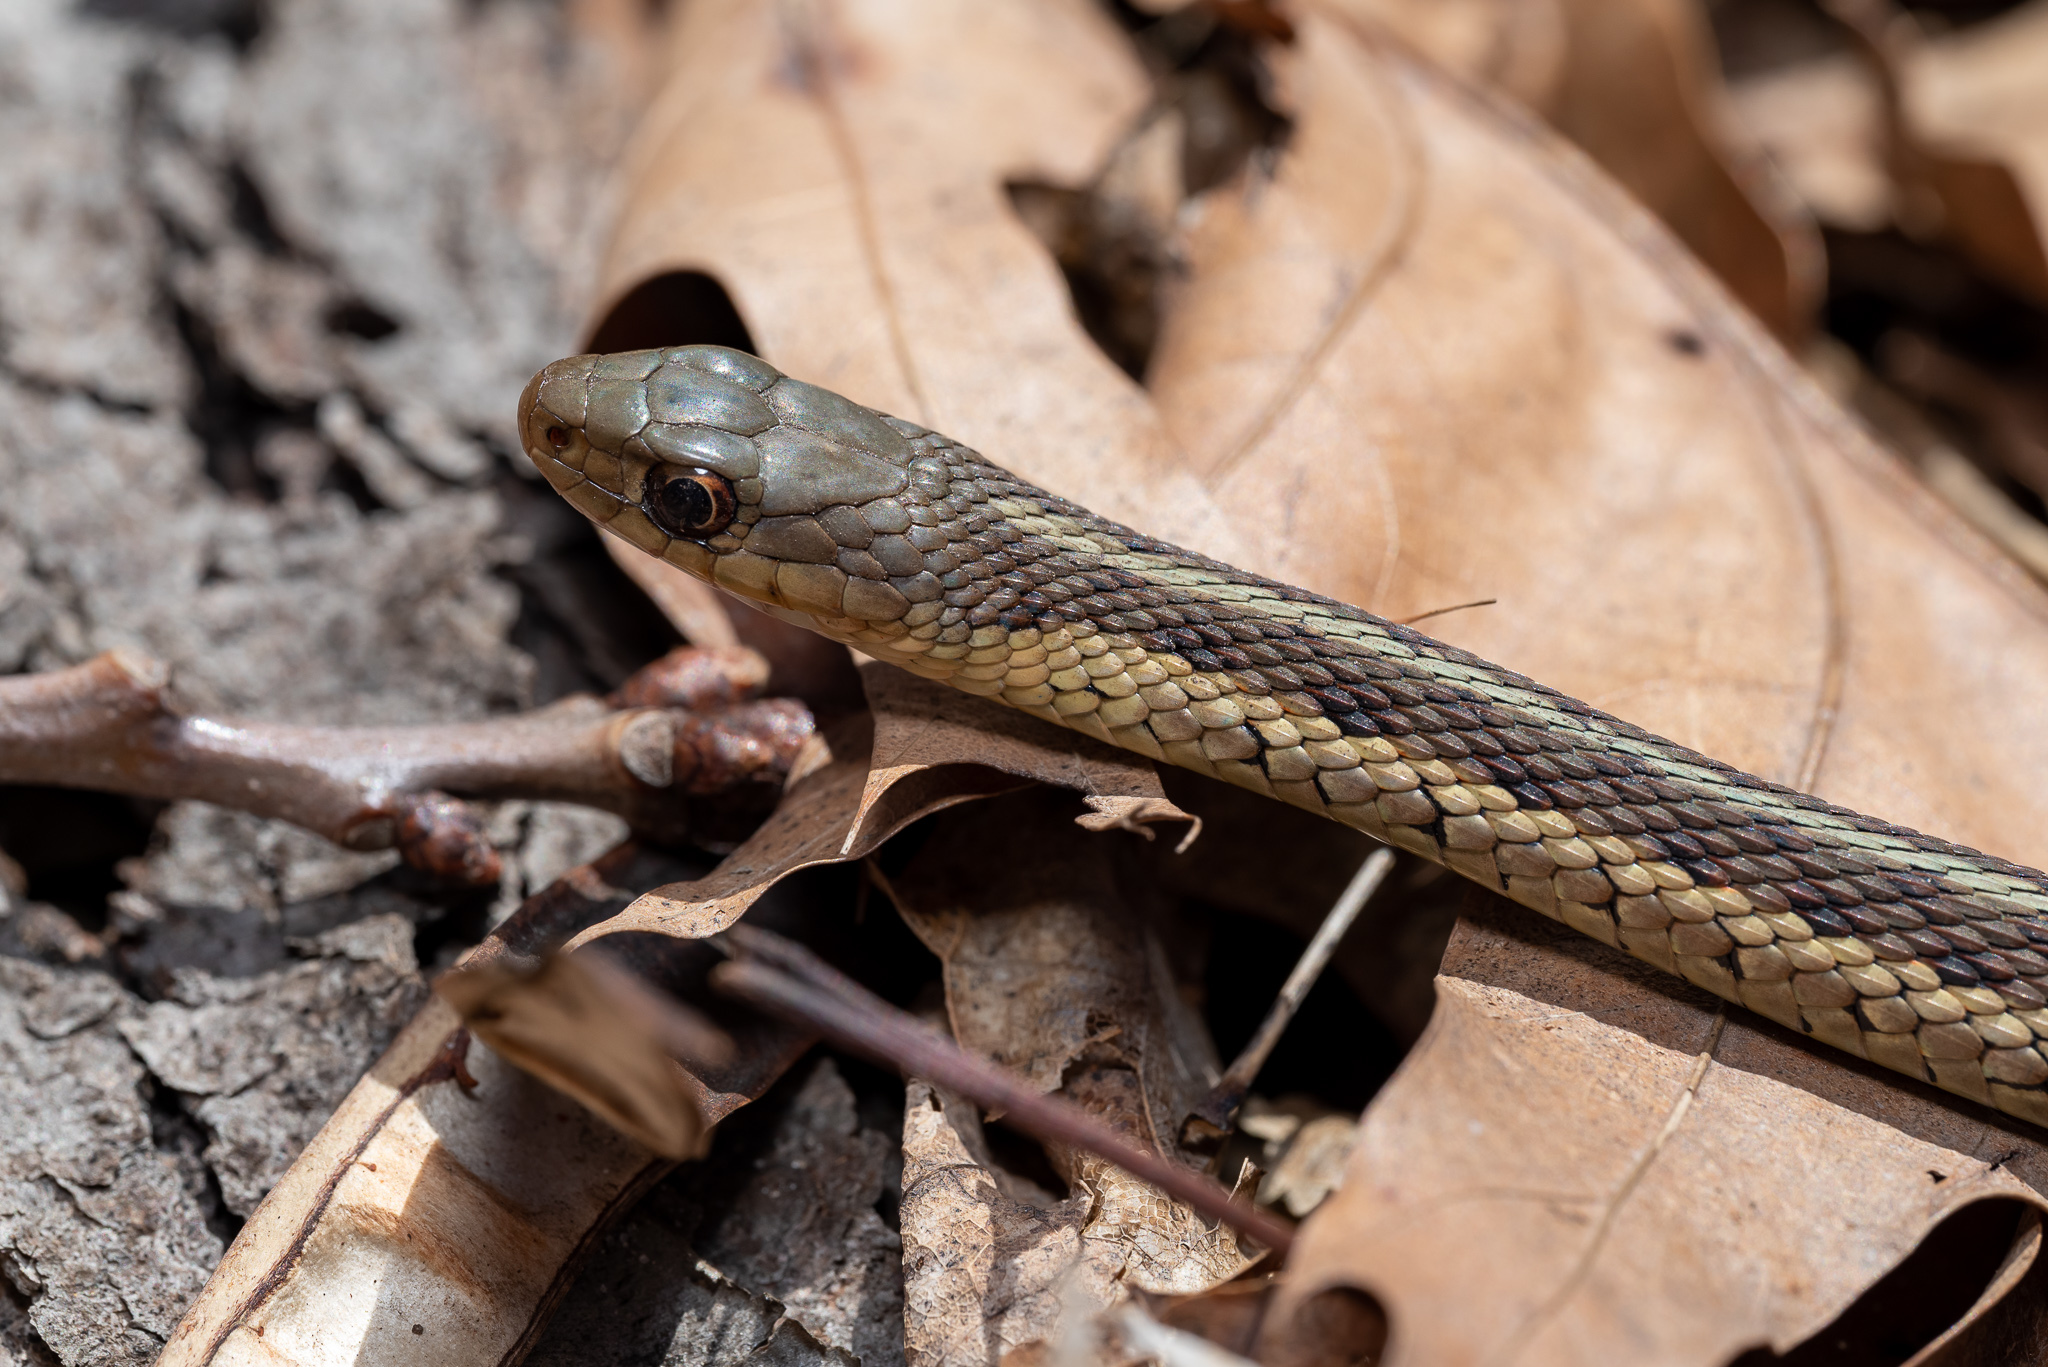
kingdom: Animalia
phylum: Chordata
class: Squamata
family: Colubridae
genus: Thamnophis
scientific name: Thamnophis sirtalis
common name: Common garter snake
